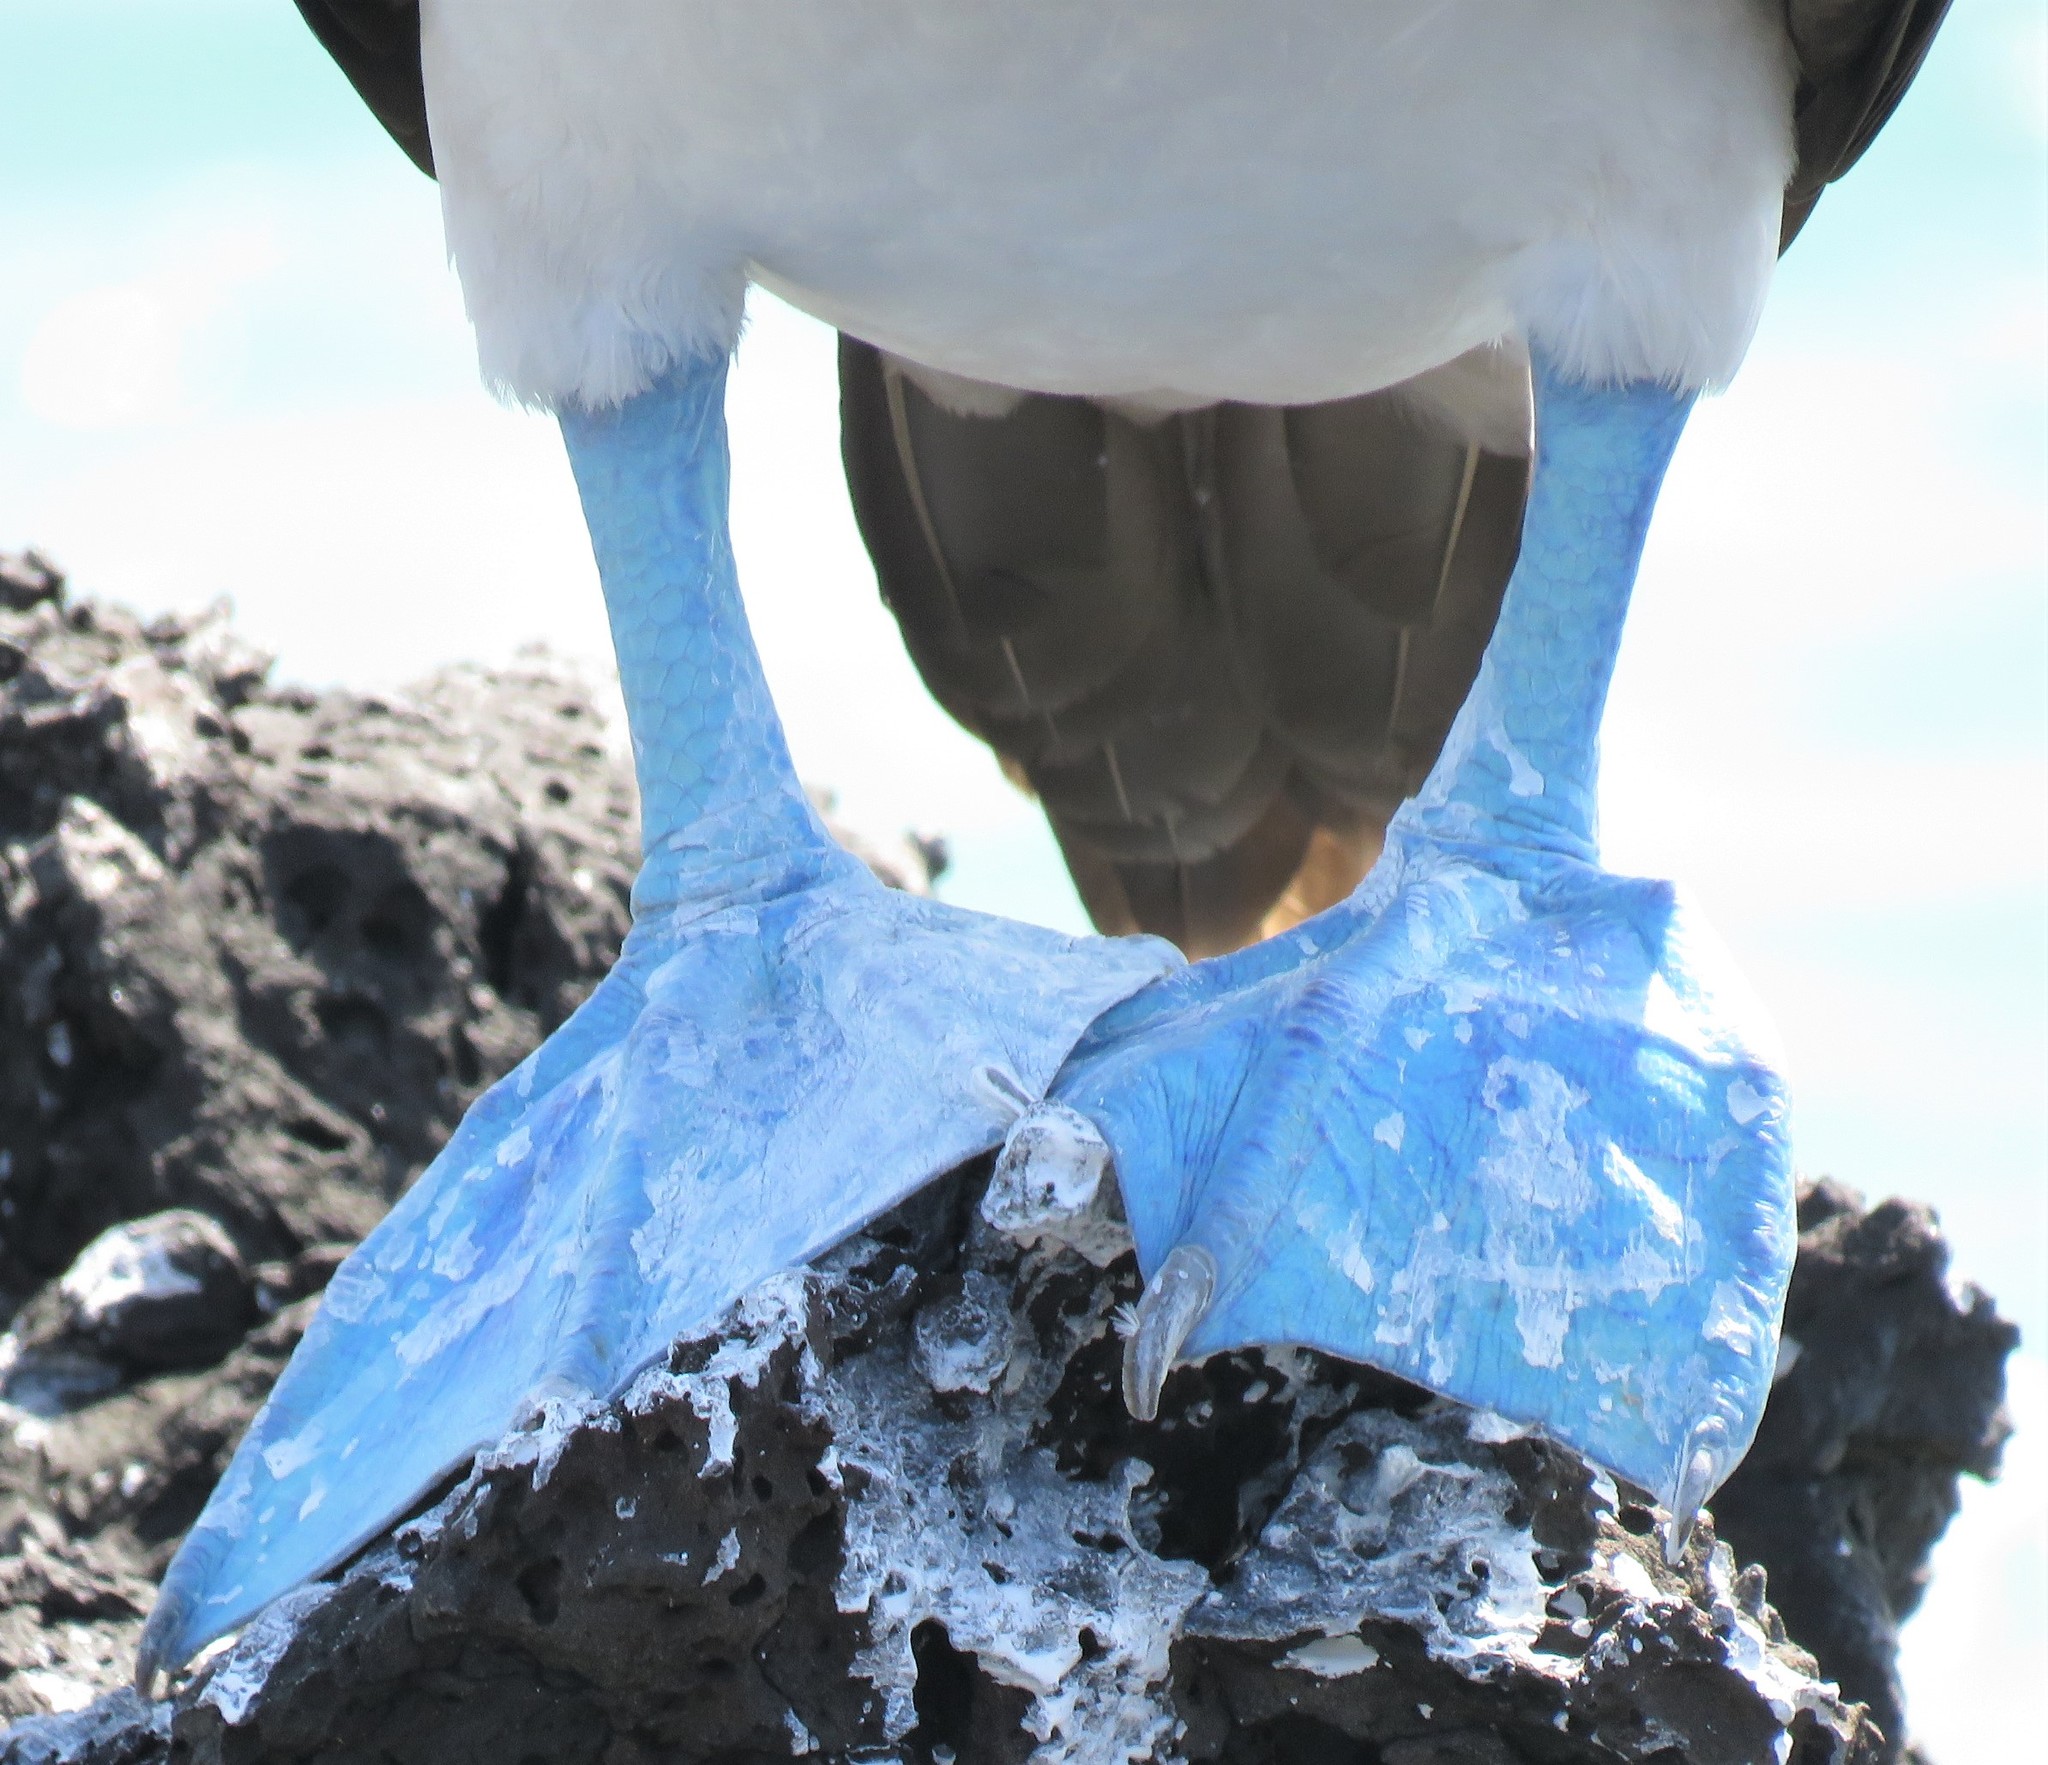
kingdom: Animalia
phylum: Chordata
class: Aves
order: Suliformes
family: Sulidae
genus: Sula
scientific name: Sula nebouxii
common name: Blue-footed booby
